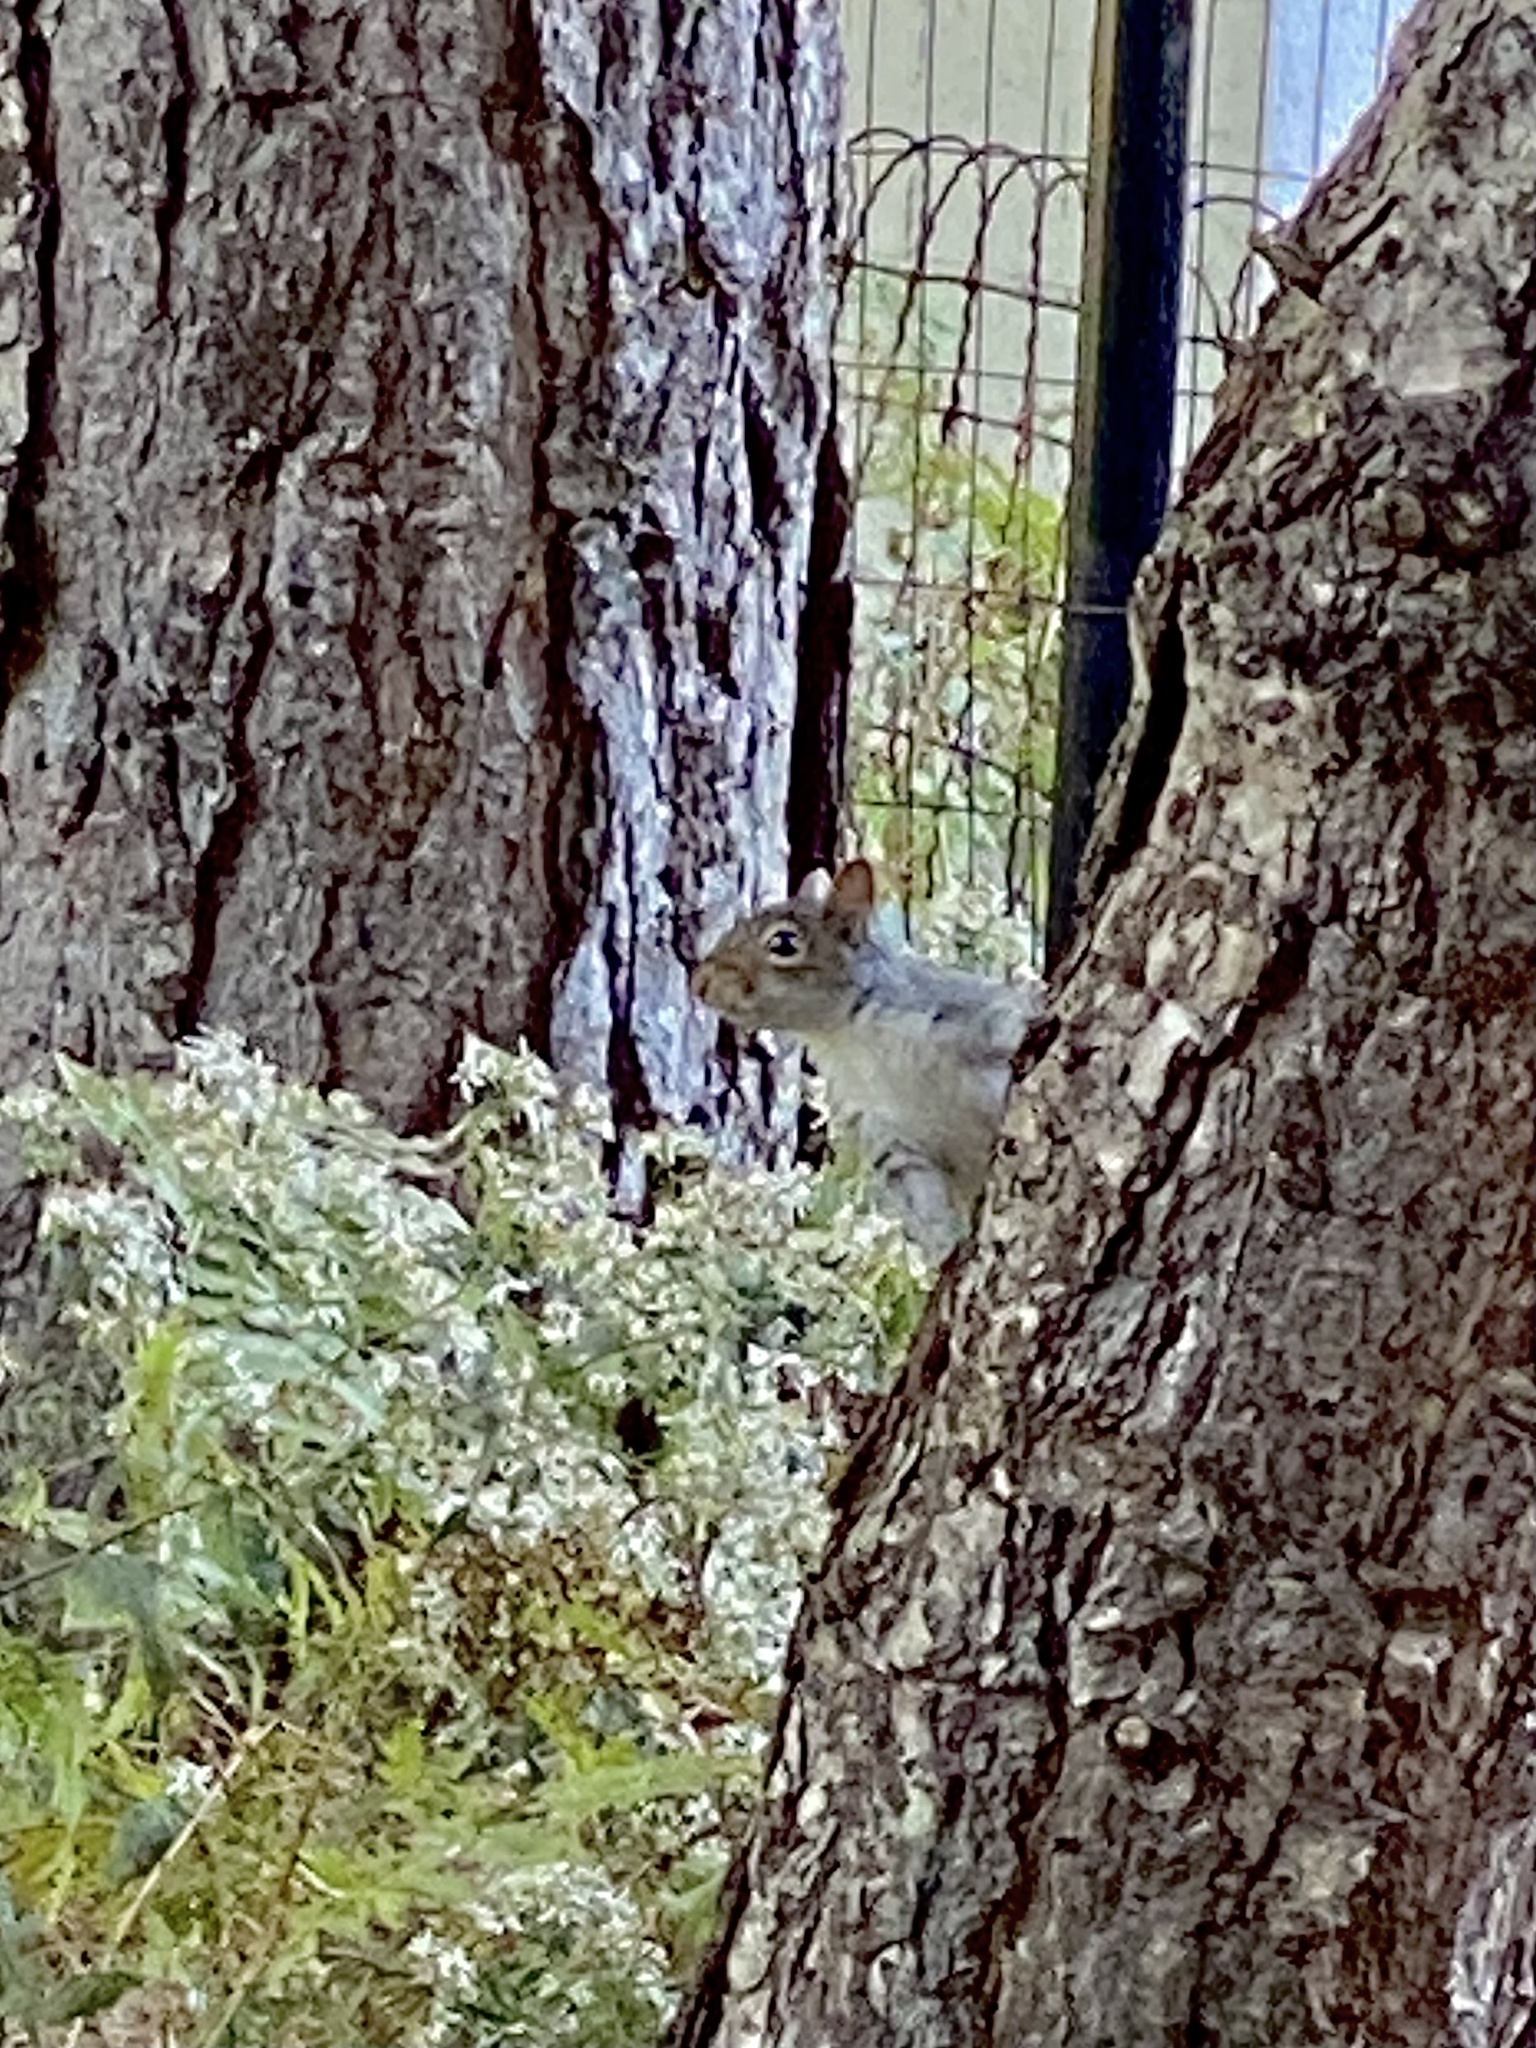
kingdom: Animalia
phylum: Chordata
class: Mammalia
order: Rodentia
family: Sciuridae
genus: Sciurus
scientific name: Sciurus carolinensis
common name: Eastern gray squirrel
